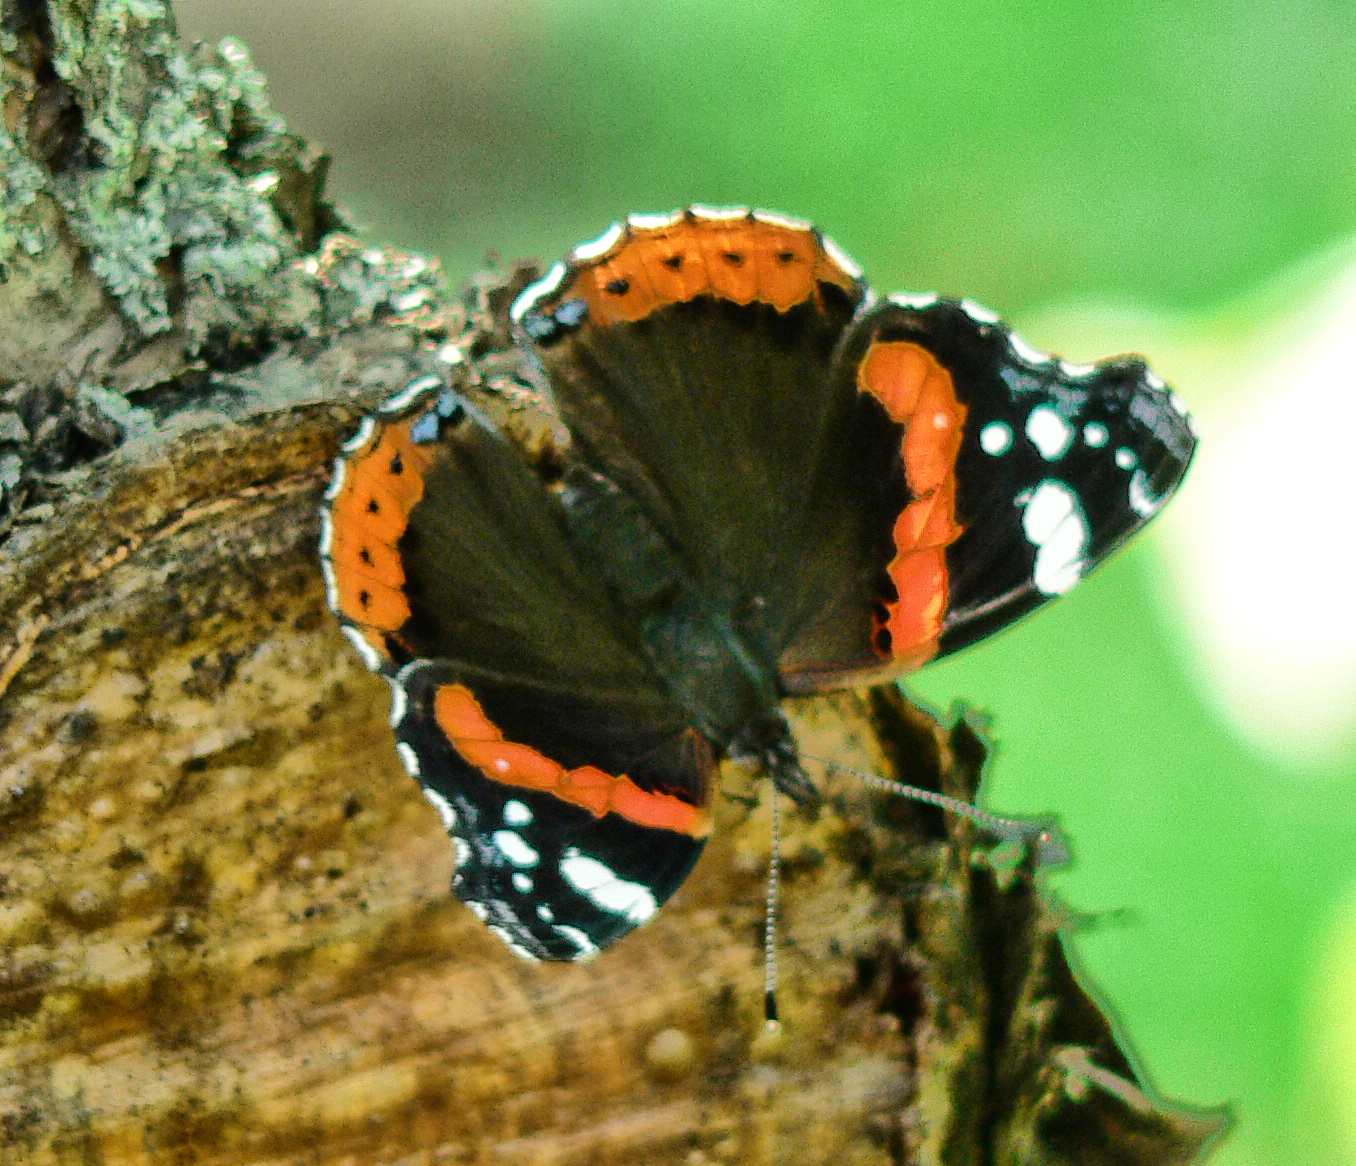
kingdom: Animalia
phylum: Arthropoda
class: Insecta
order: Lepidoptera
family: Nymphalidae
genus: Vanessa
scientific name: Vanessa atalanta
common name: Red admiral
